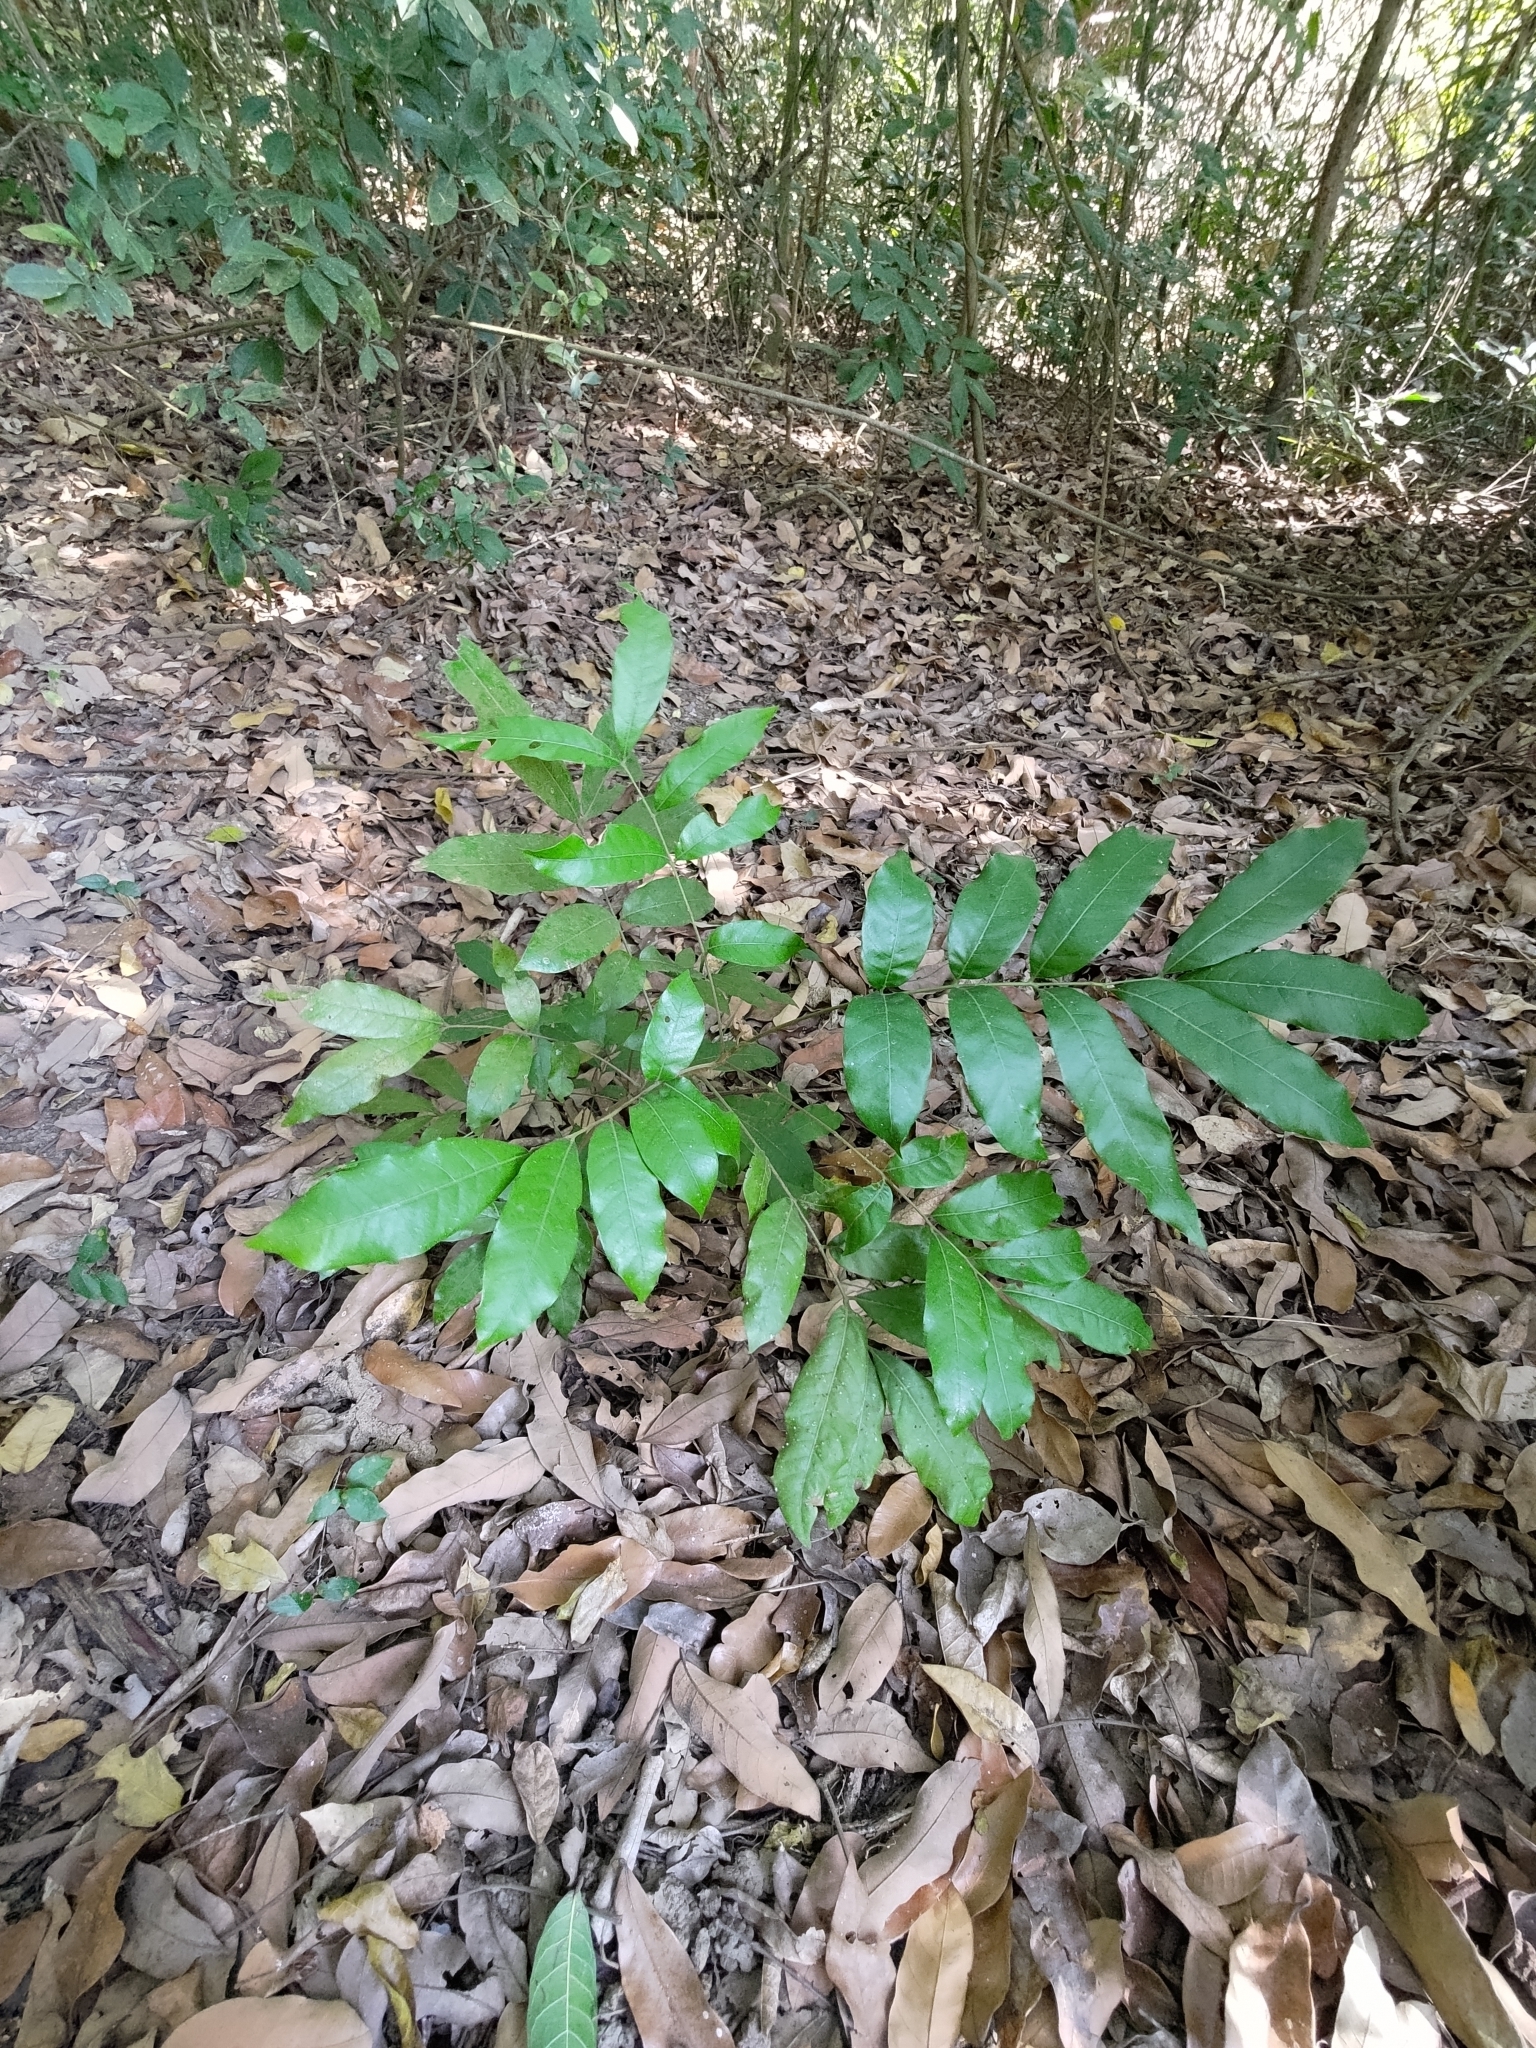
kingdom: Plantae
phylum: Tracheophyta
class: Magnoliopsida
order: Sapindales
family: Sapindaceae
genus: Dimocarpus
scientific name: Dimocarpus longan
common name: Longan
